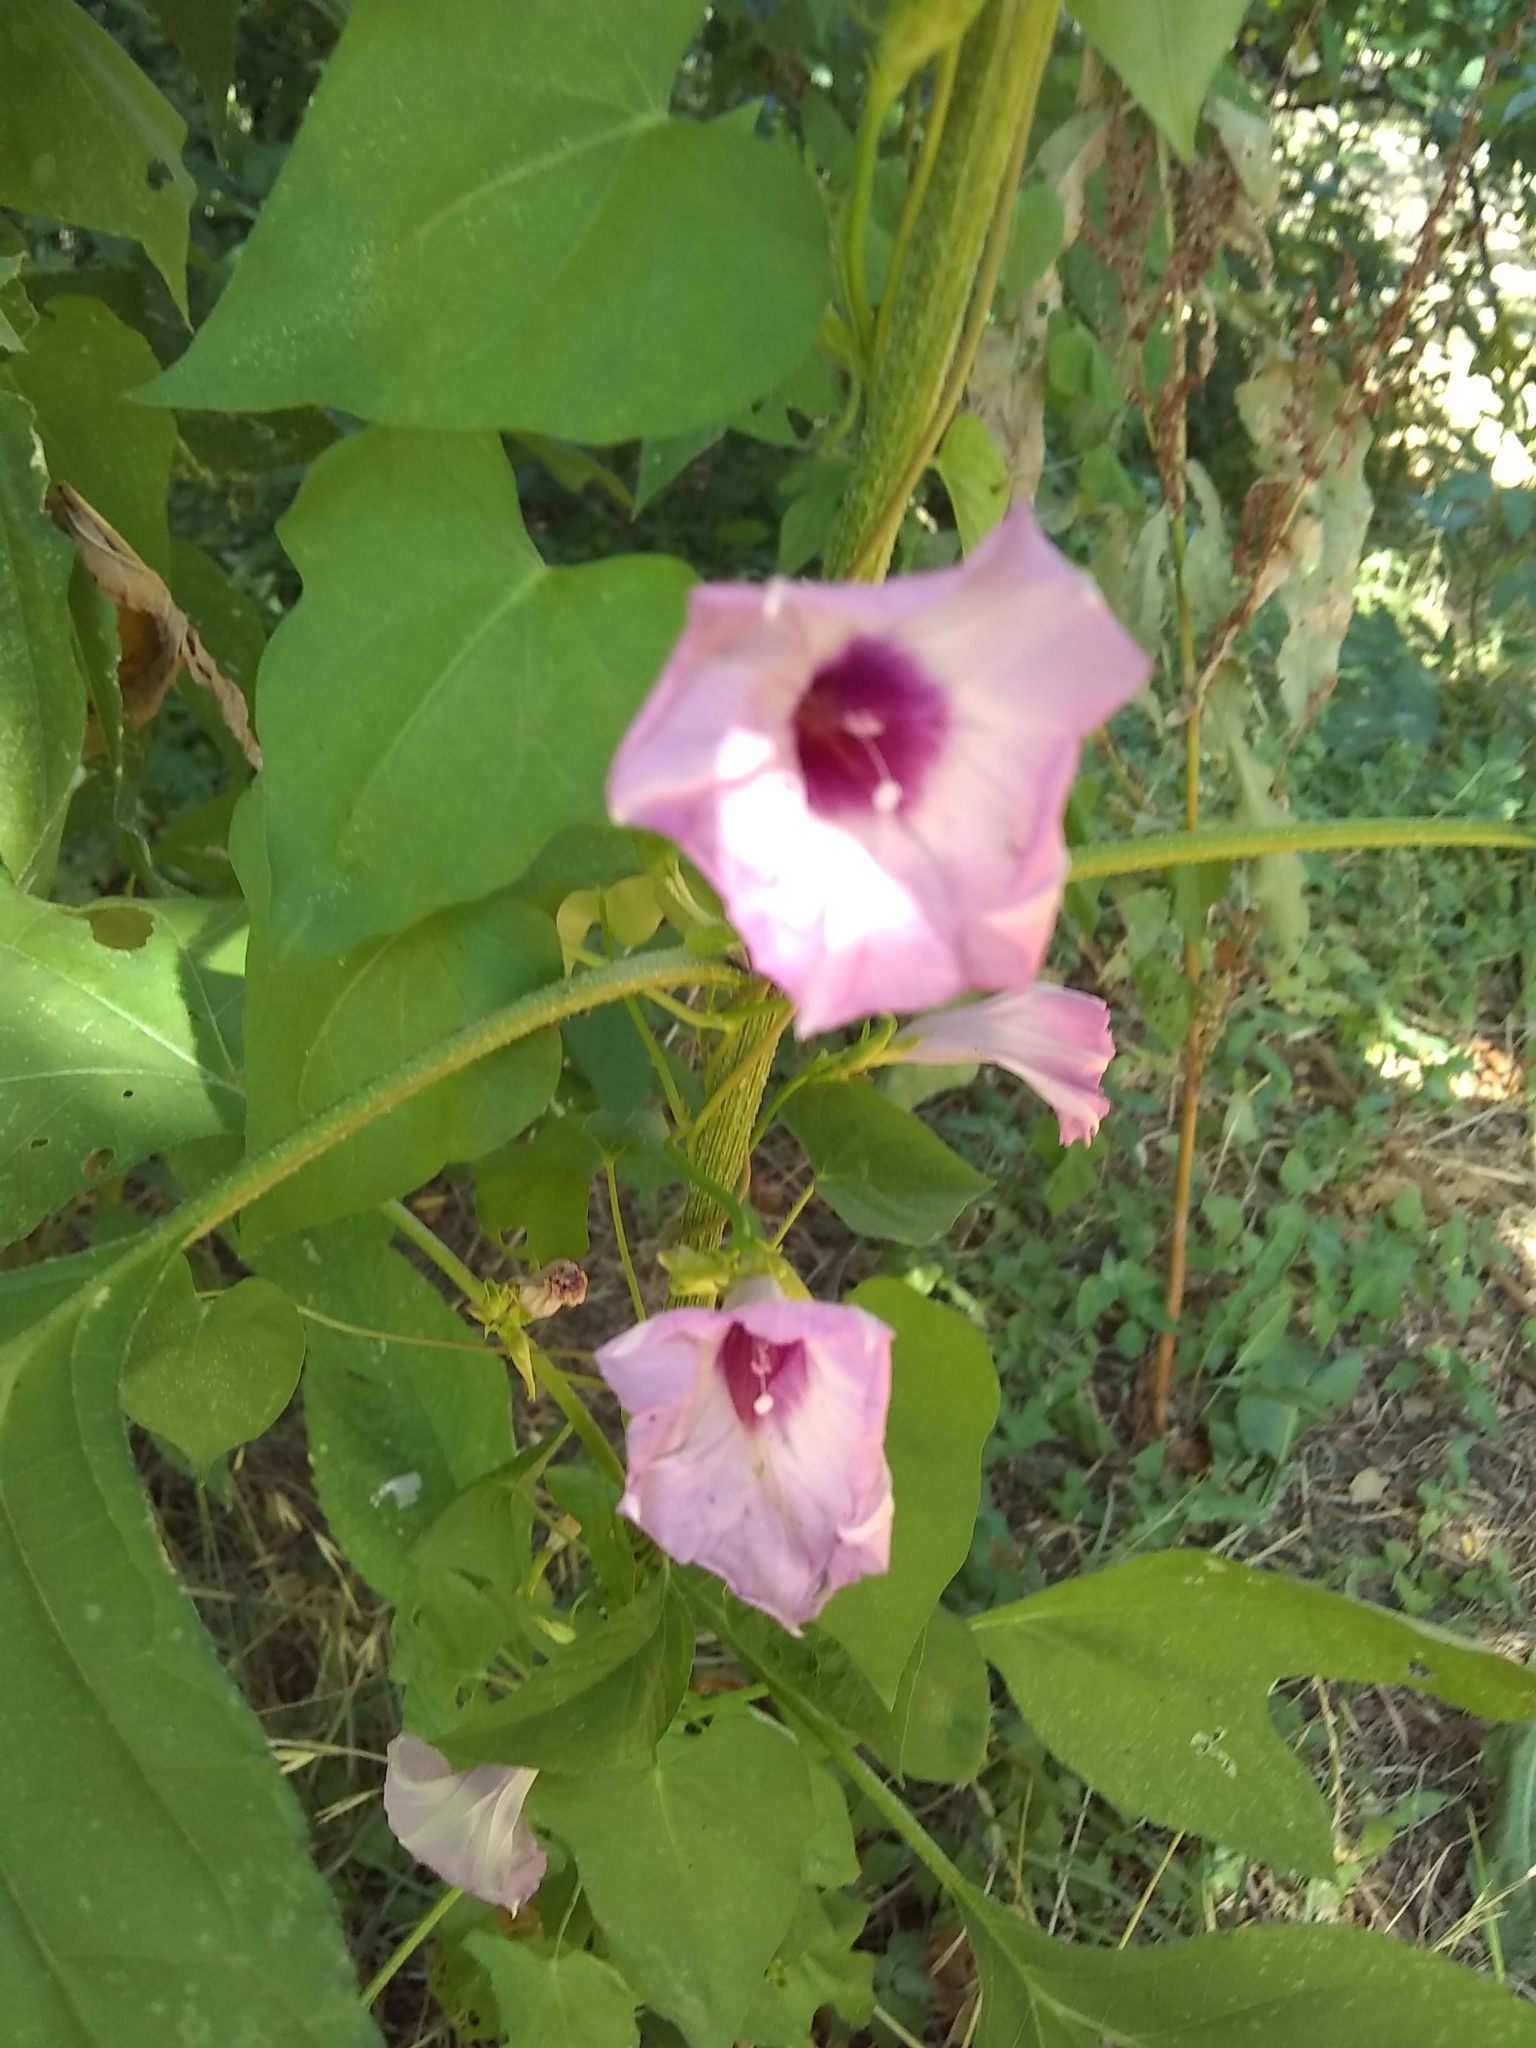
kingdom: Plantae
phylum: Tracheophyta
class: Magnoliopsida
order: Solanales
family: Convolvulaceae
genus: Ipomoea
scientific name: Ipomoea cordatotriloba
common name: Cotton morning glory
